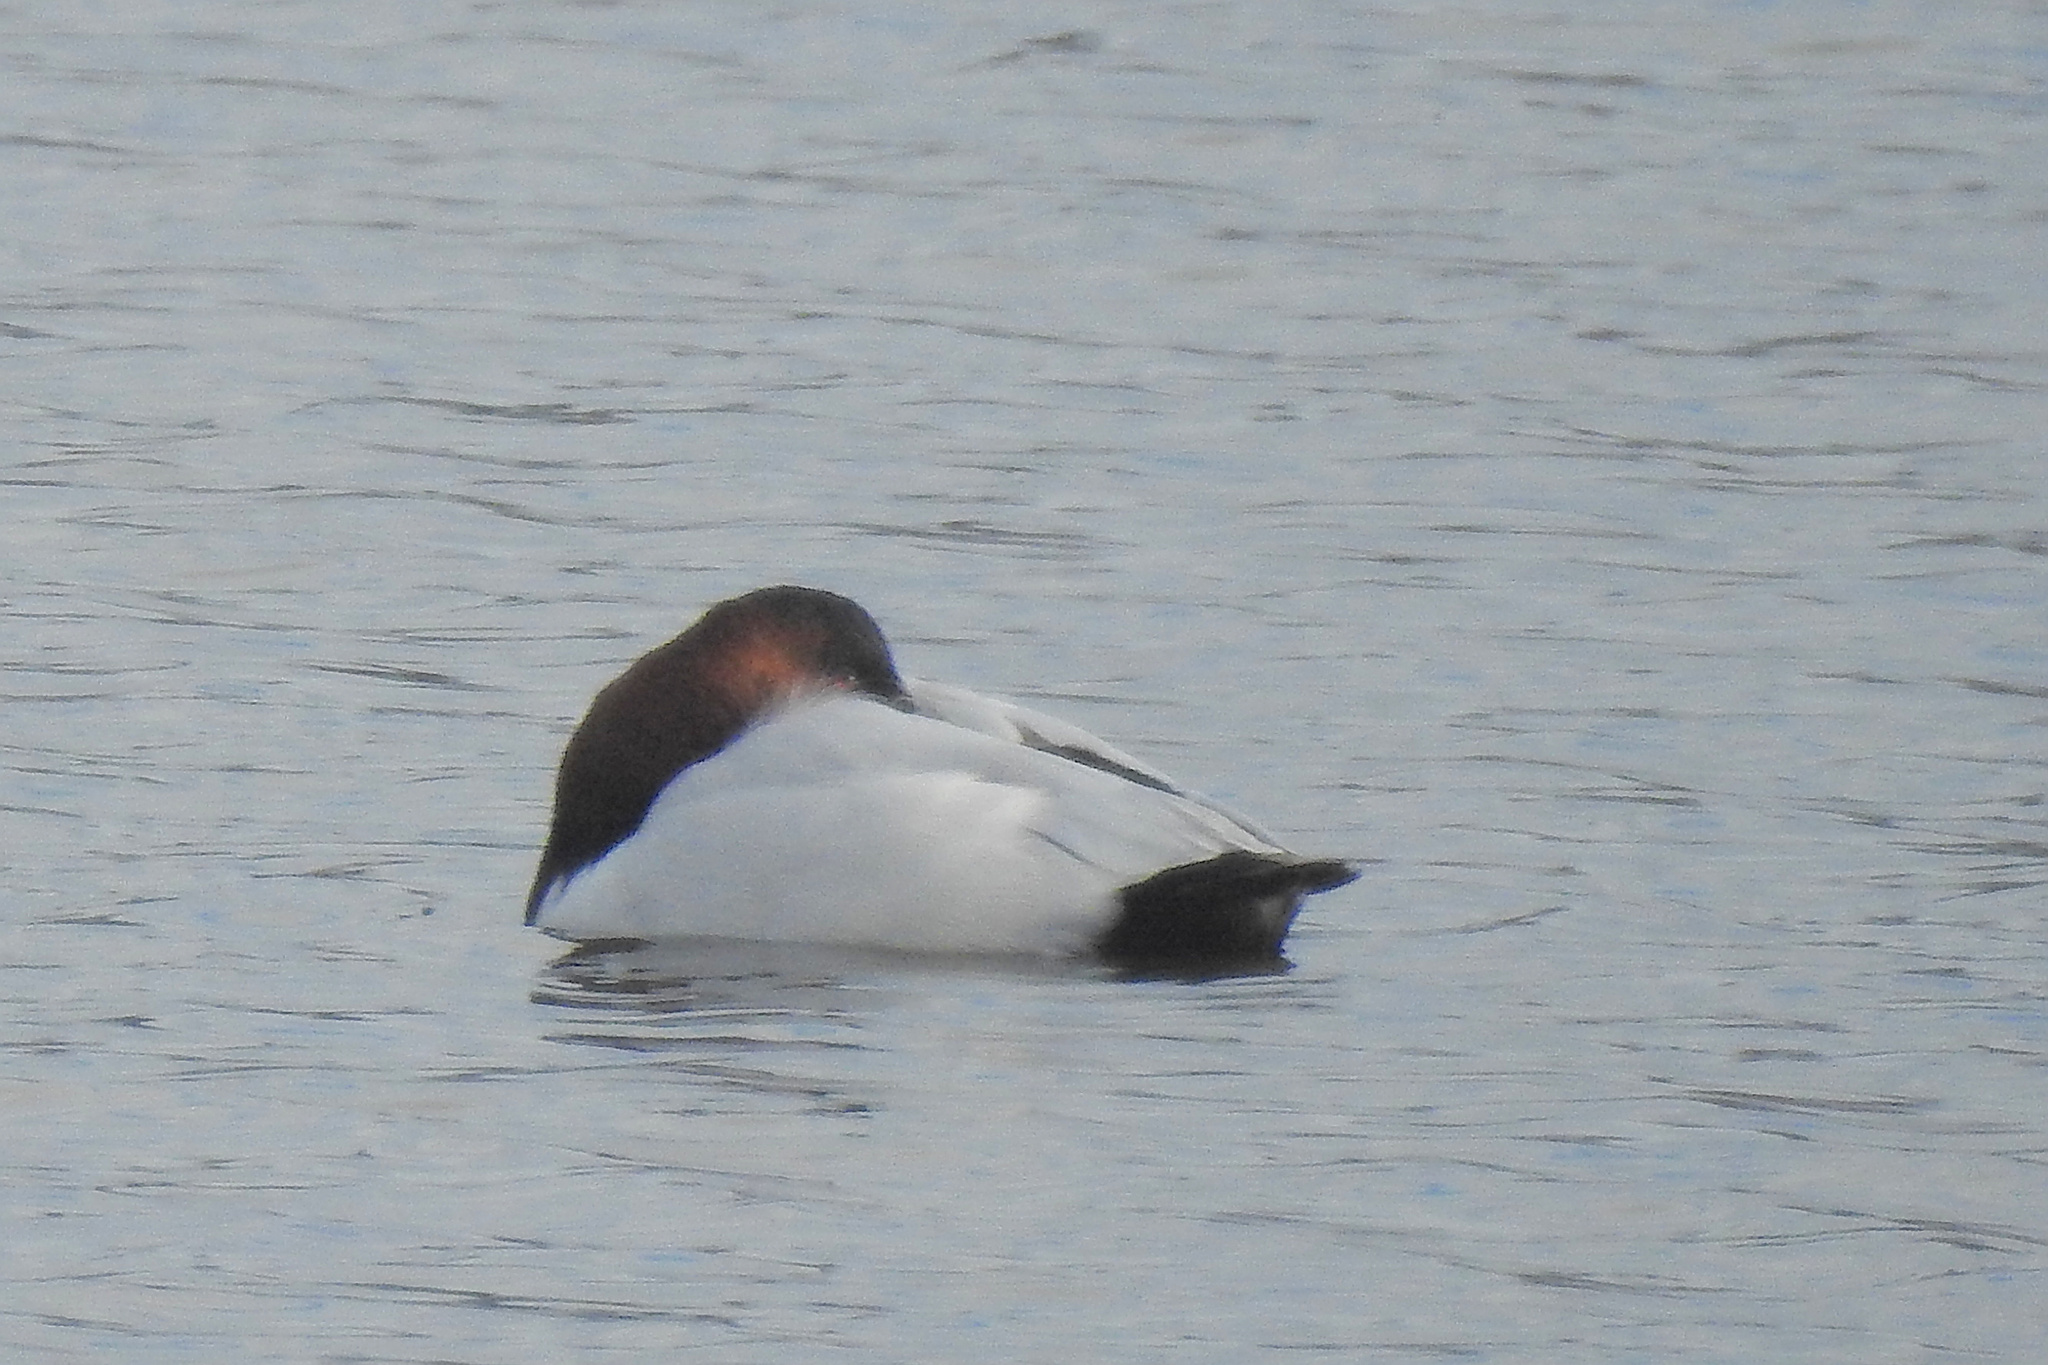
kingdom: Animalia
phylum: Chordata
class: Aves
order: Anseriformes
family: Anatidae
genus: Aythya
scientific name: Aythya valisineria
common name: Canvasback
